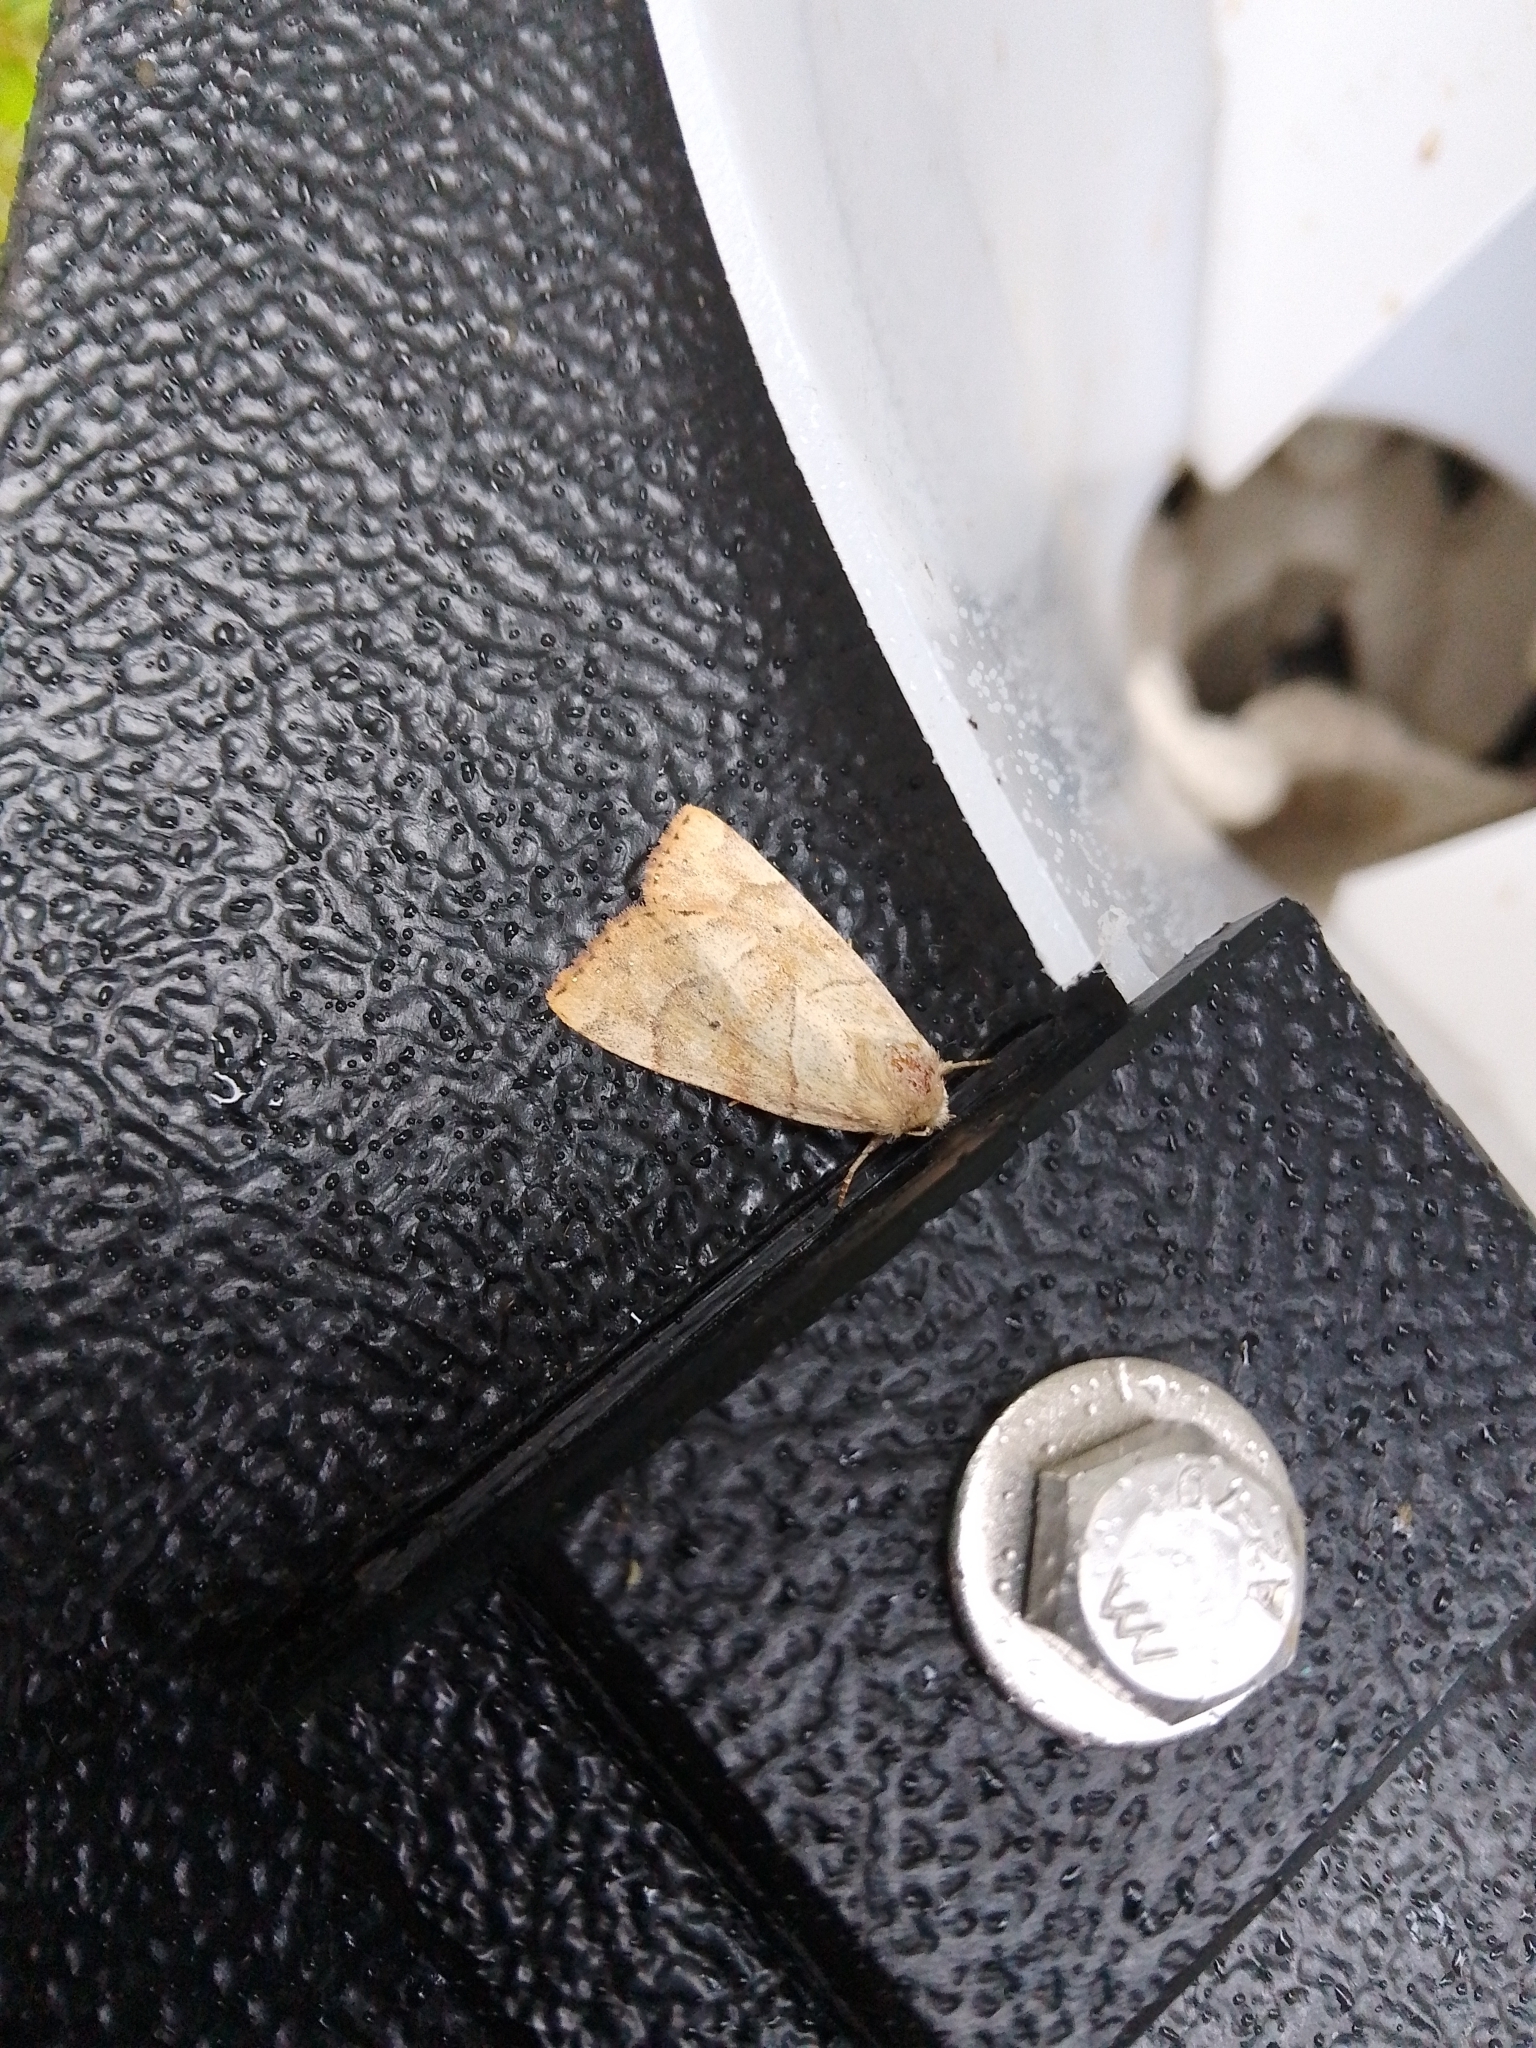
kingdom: Animalia
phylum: Arthropoda
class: Insecta
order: Lepidoptera
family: Noctuidae
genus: Cosmia
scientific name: Cosmia trapezina
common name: Dun-bar
